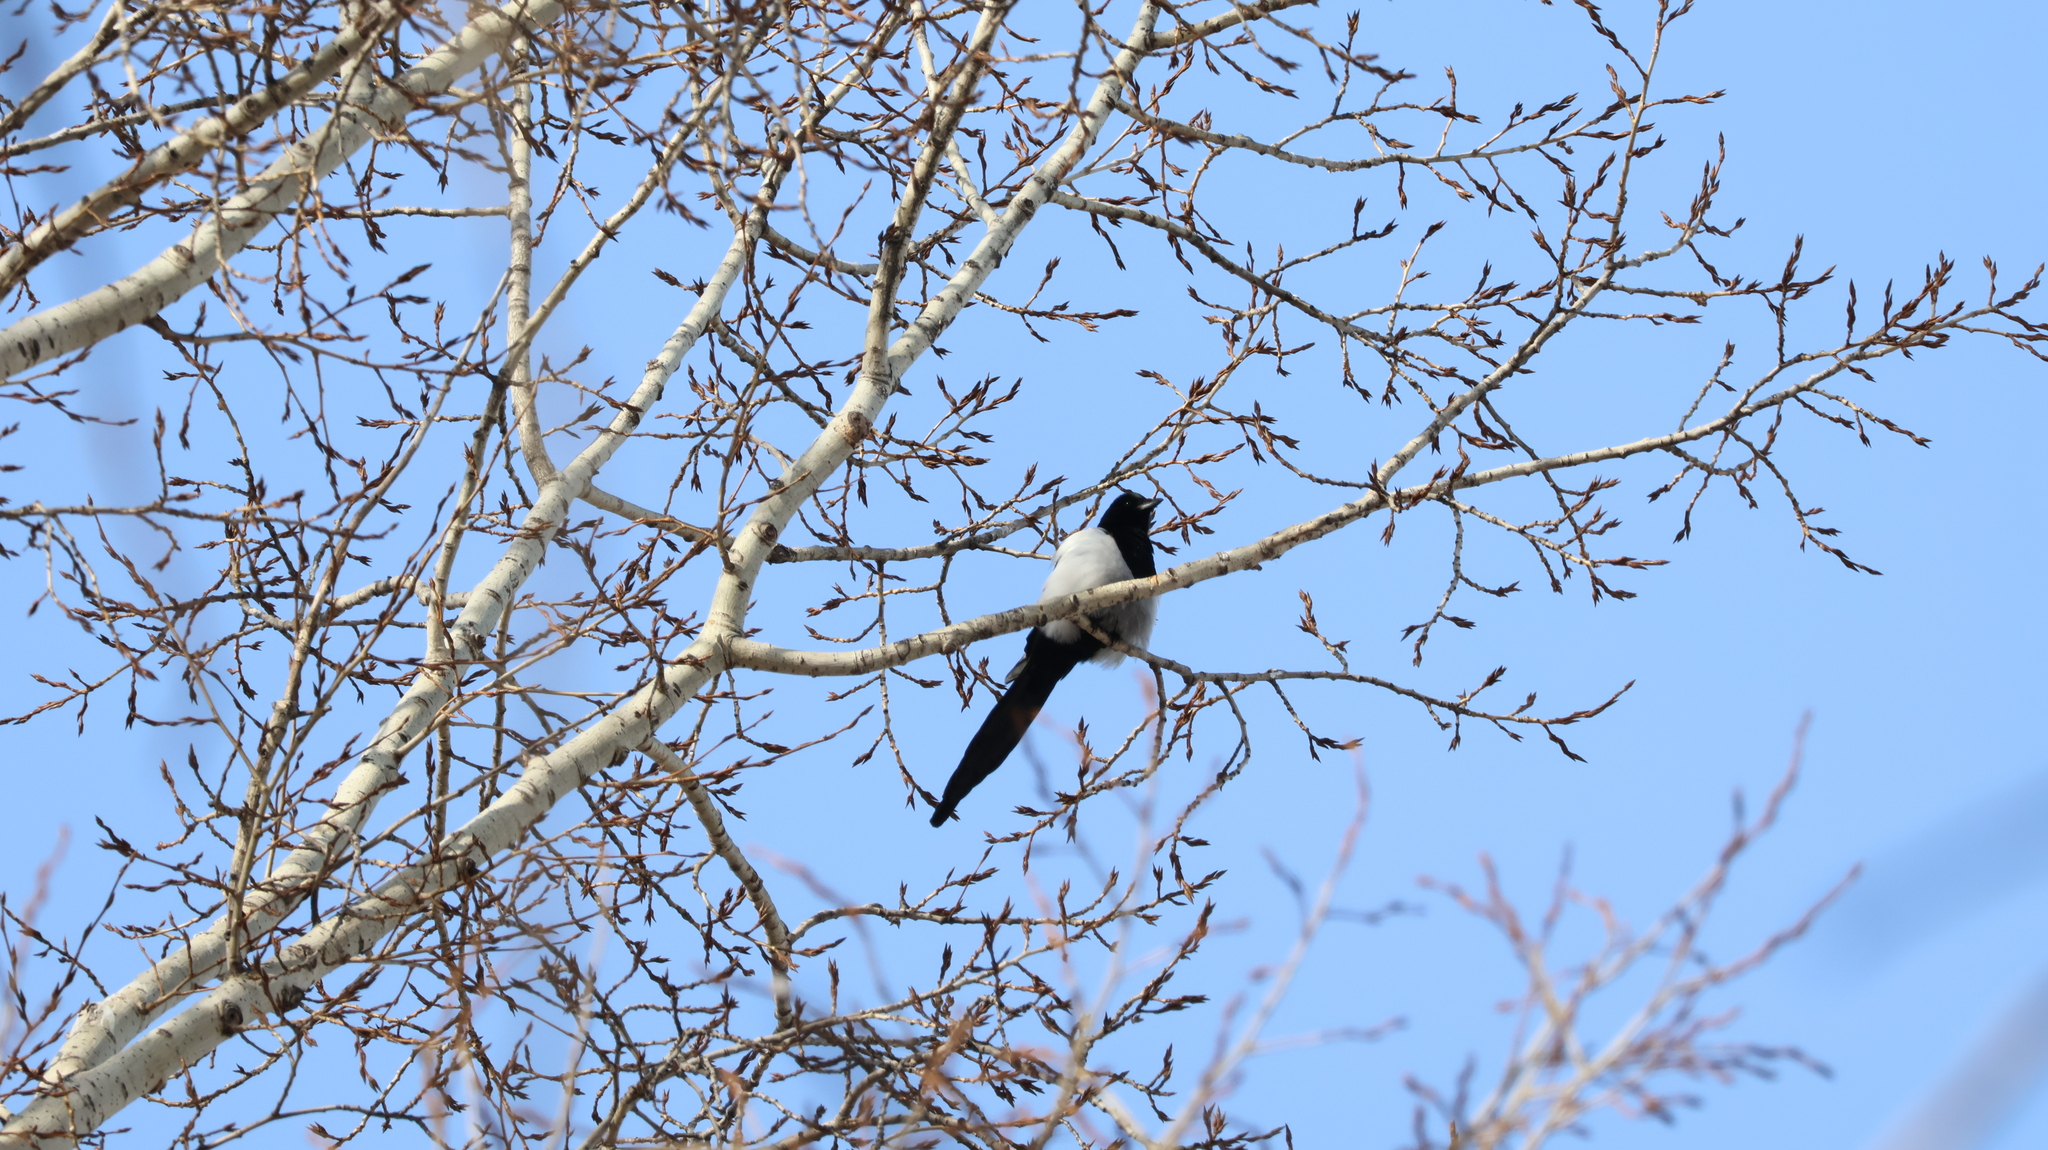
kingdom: Animalia
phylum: Chordata
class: Aves
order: Passeriformes
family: Corvidae
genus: Pica
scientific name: Pica pica
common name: Eurasian magpie
